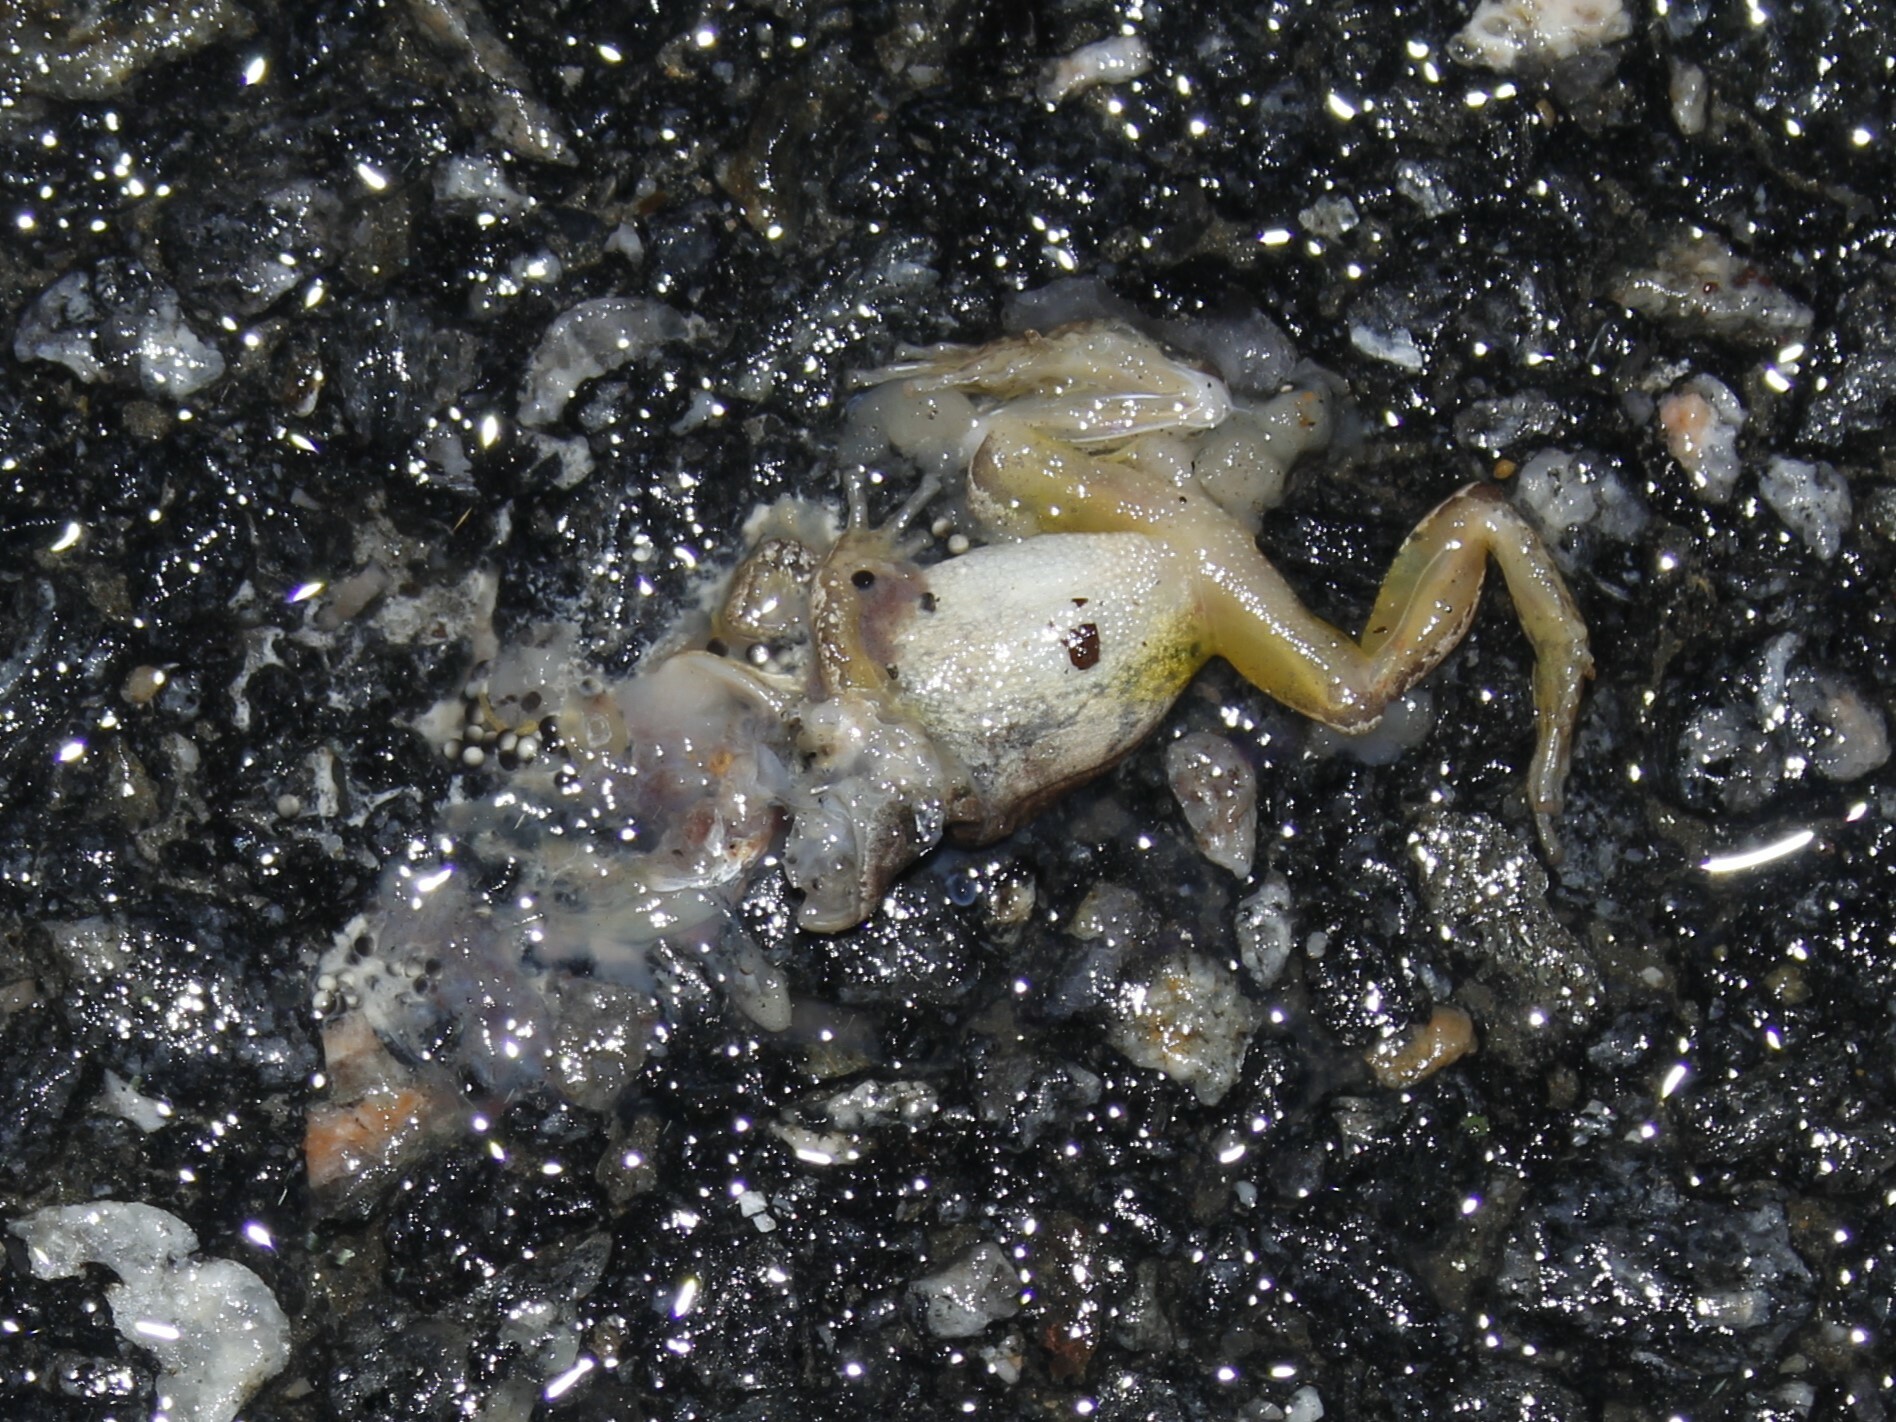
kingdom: Animalia
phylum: Chordata
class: Amphibia
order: Anura
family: Hylidae
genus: Pseudacris
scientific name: Pseudacris crucifer
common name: Spring peeper
